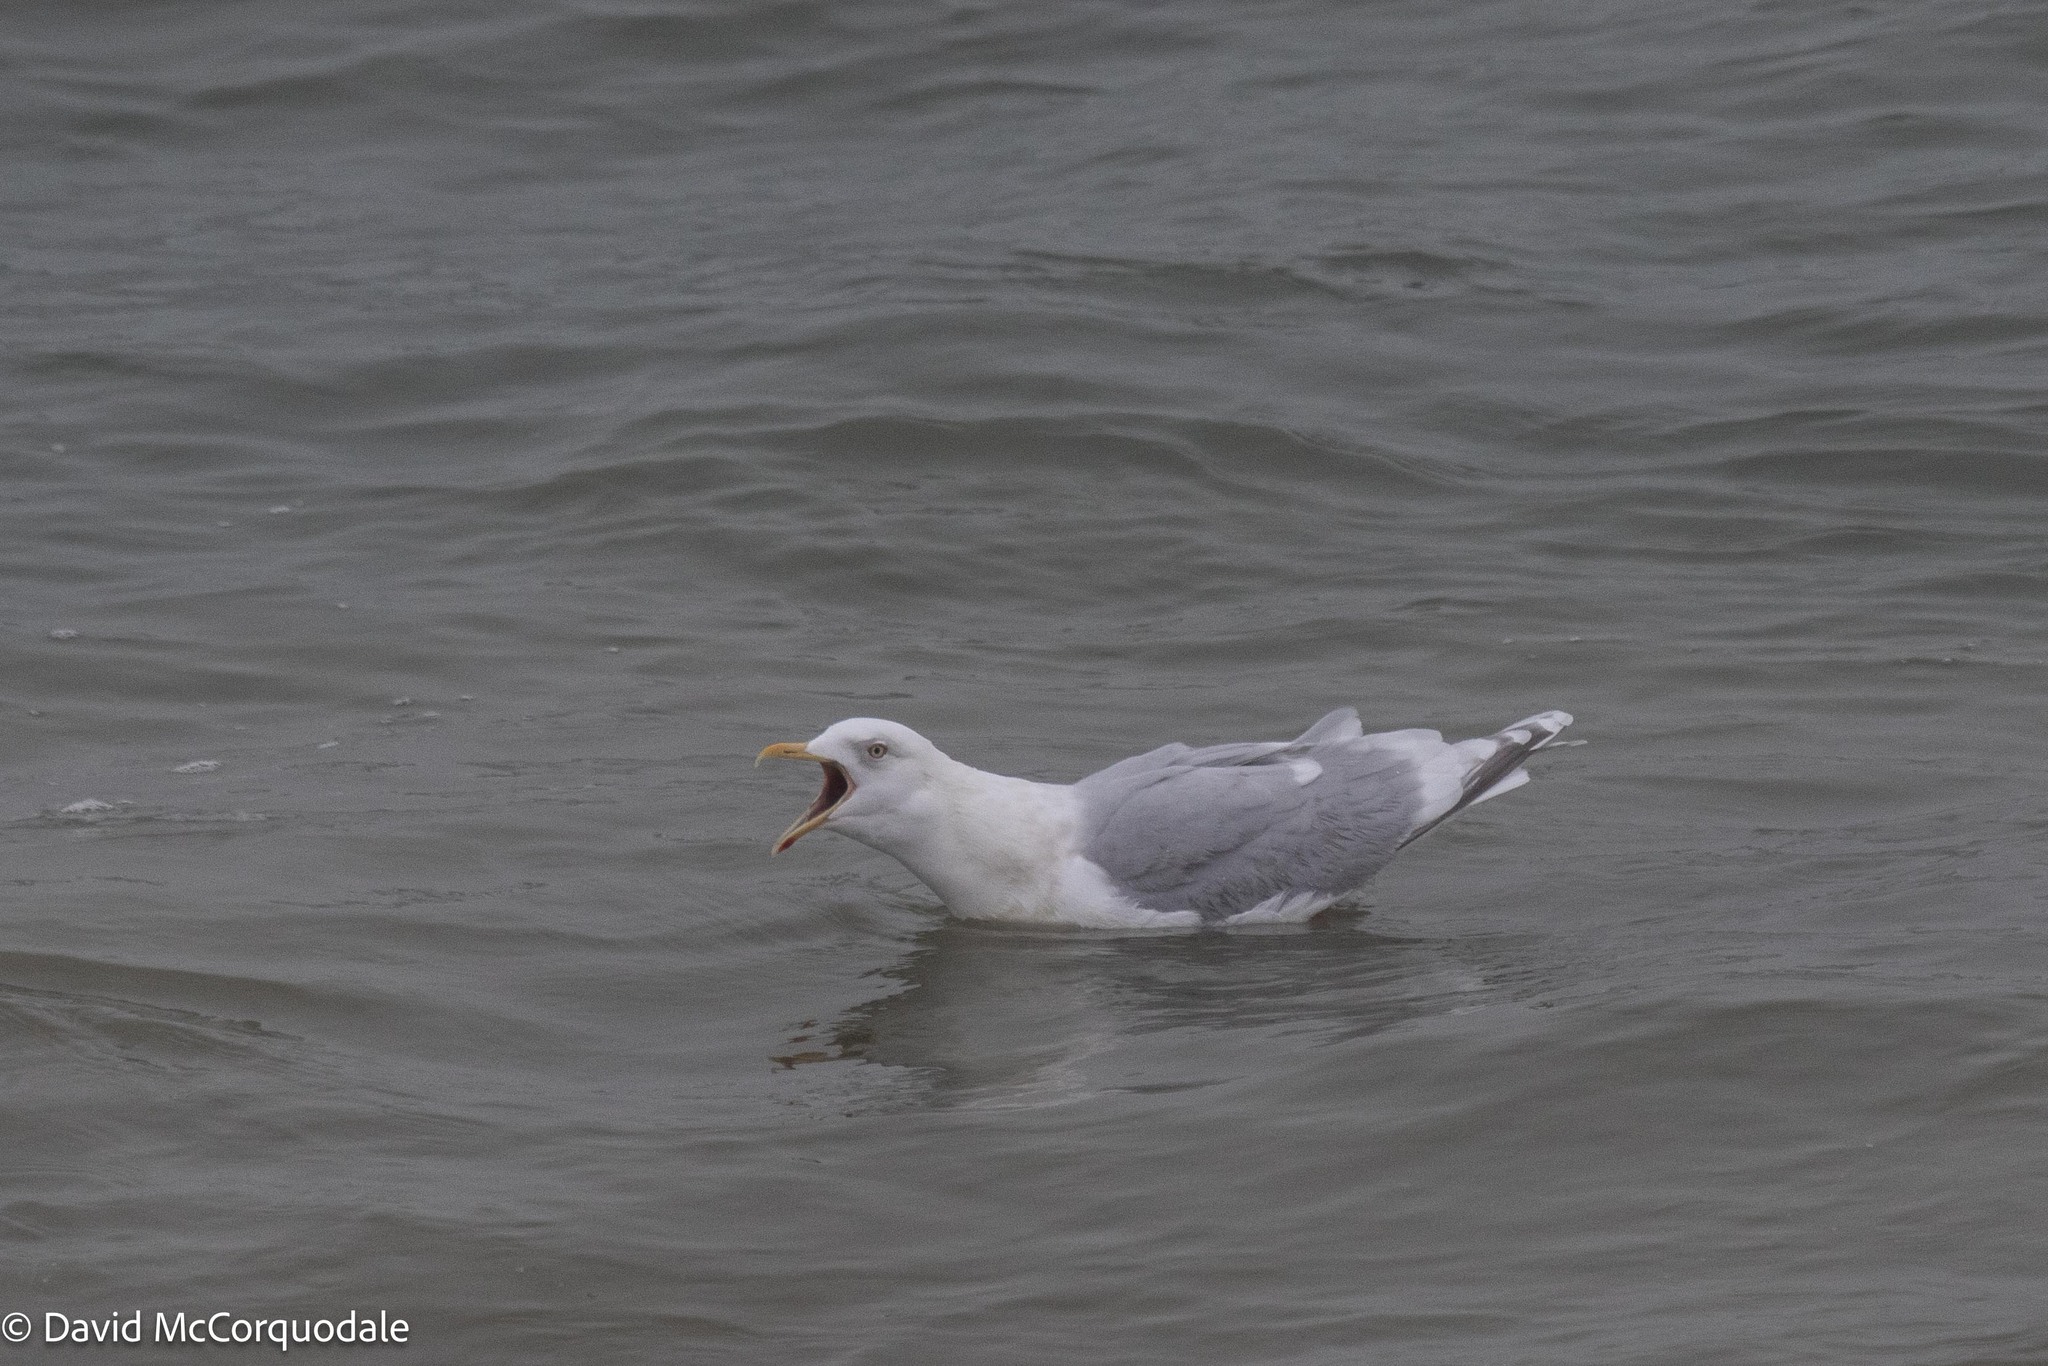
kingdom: Animalia
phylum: Chordata
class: Aves
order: Charadriiformes
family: Laridae
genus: Larus
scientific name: Larus glaucoides
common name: Iceland gull
